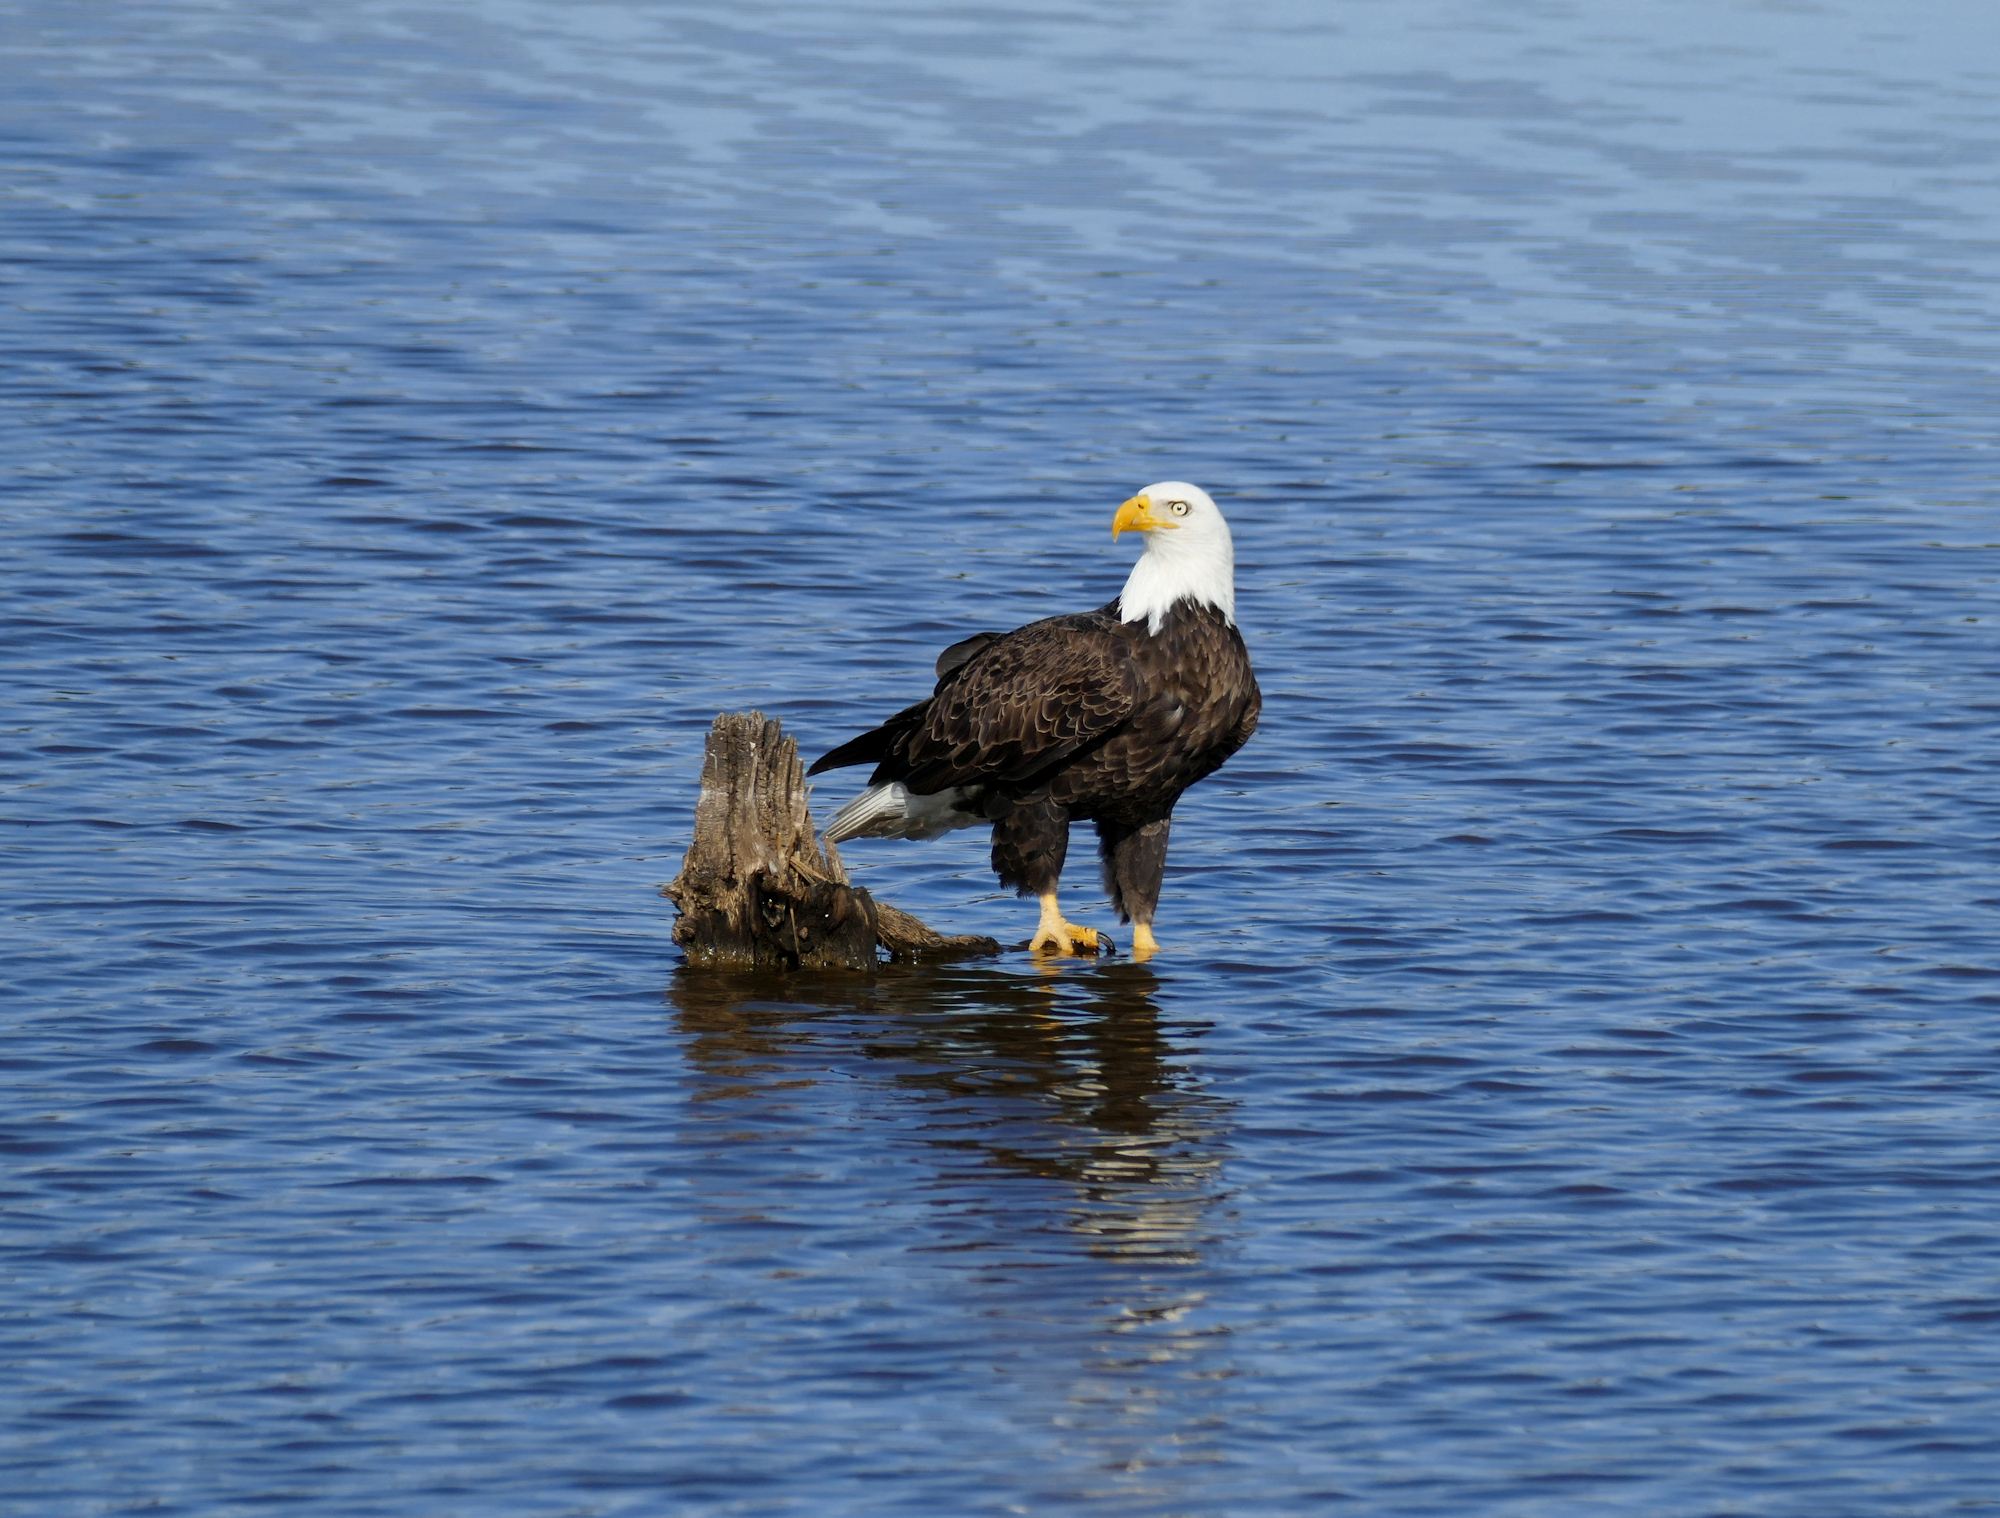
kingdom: Animalia
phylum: Chordata
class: Aves
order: Accipitriformes
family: Accipitridae
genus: Haliaeetus
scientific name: Haliaeetus leucocephalus
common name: Bald eagle
